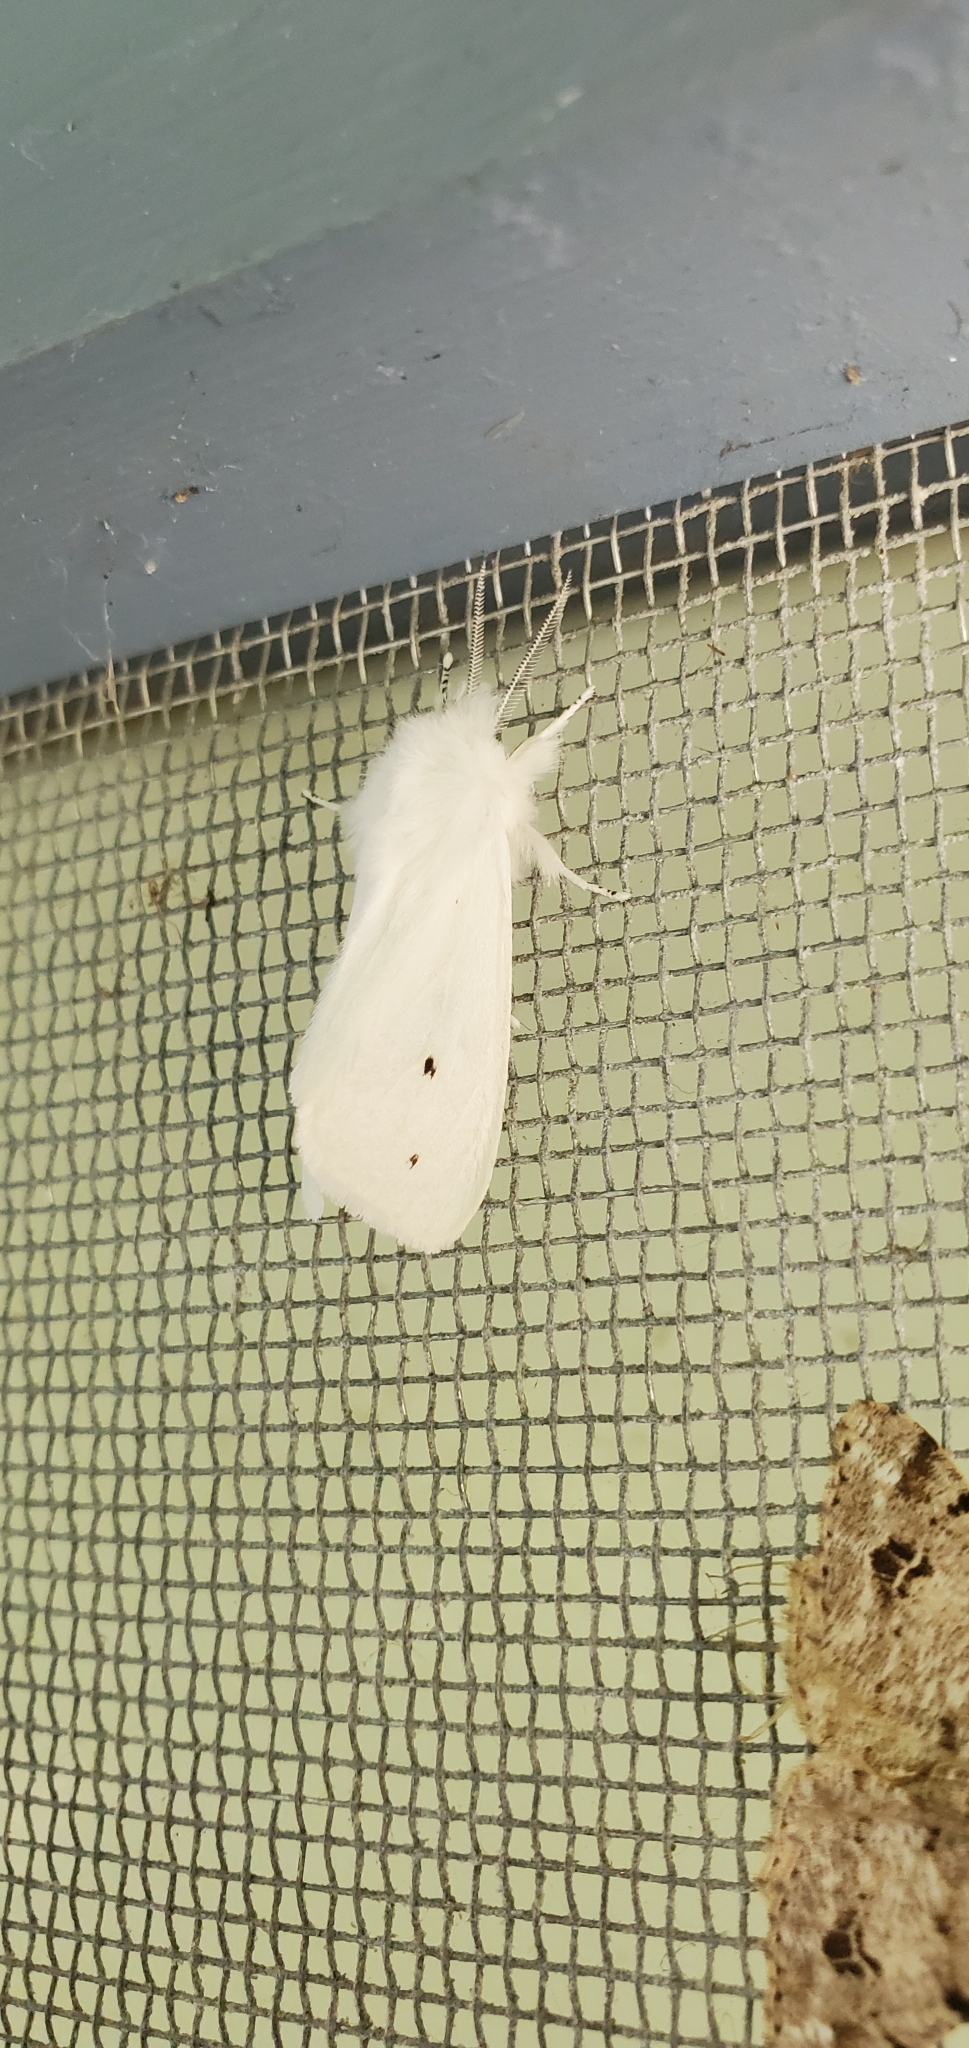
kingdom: Animalia
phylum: Arthropoda
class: Insecta
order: Lepidoptera
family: Erebidae
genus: Spilosoma
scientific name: Spilosoma virginica
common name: Virginia tiger moth
